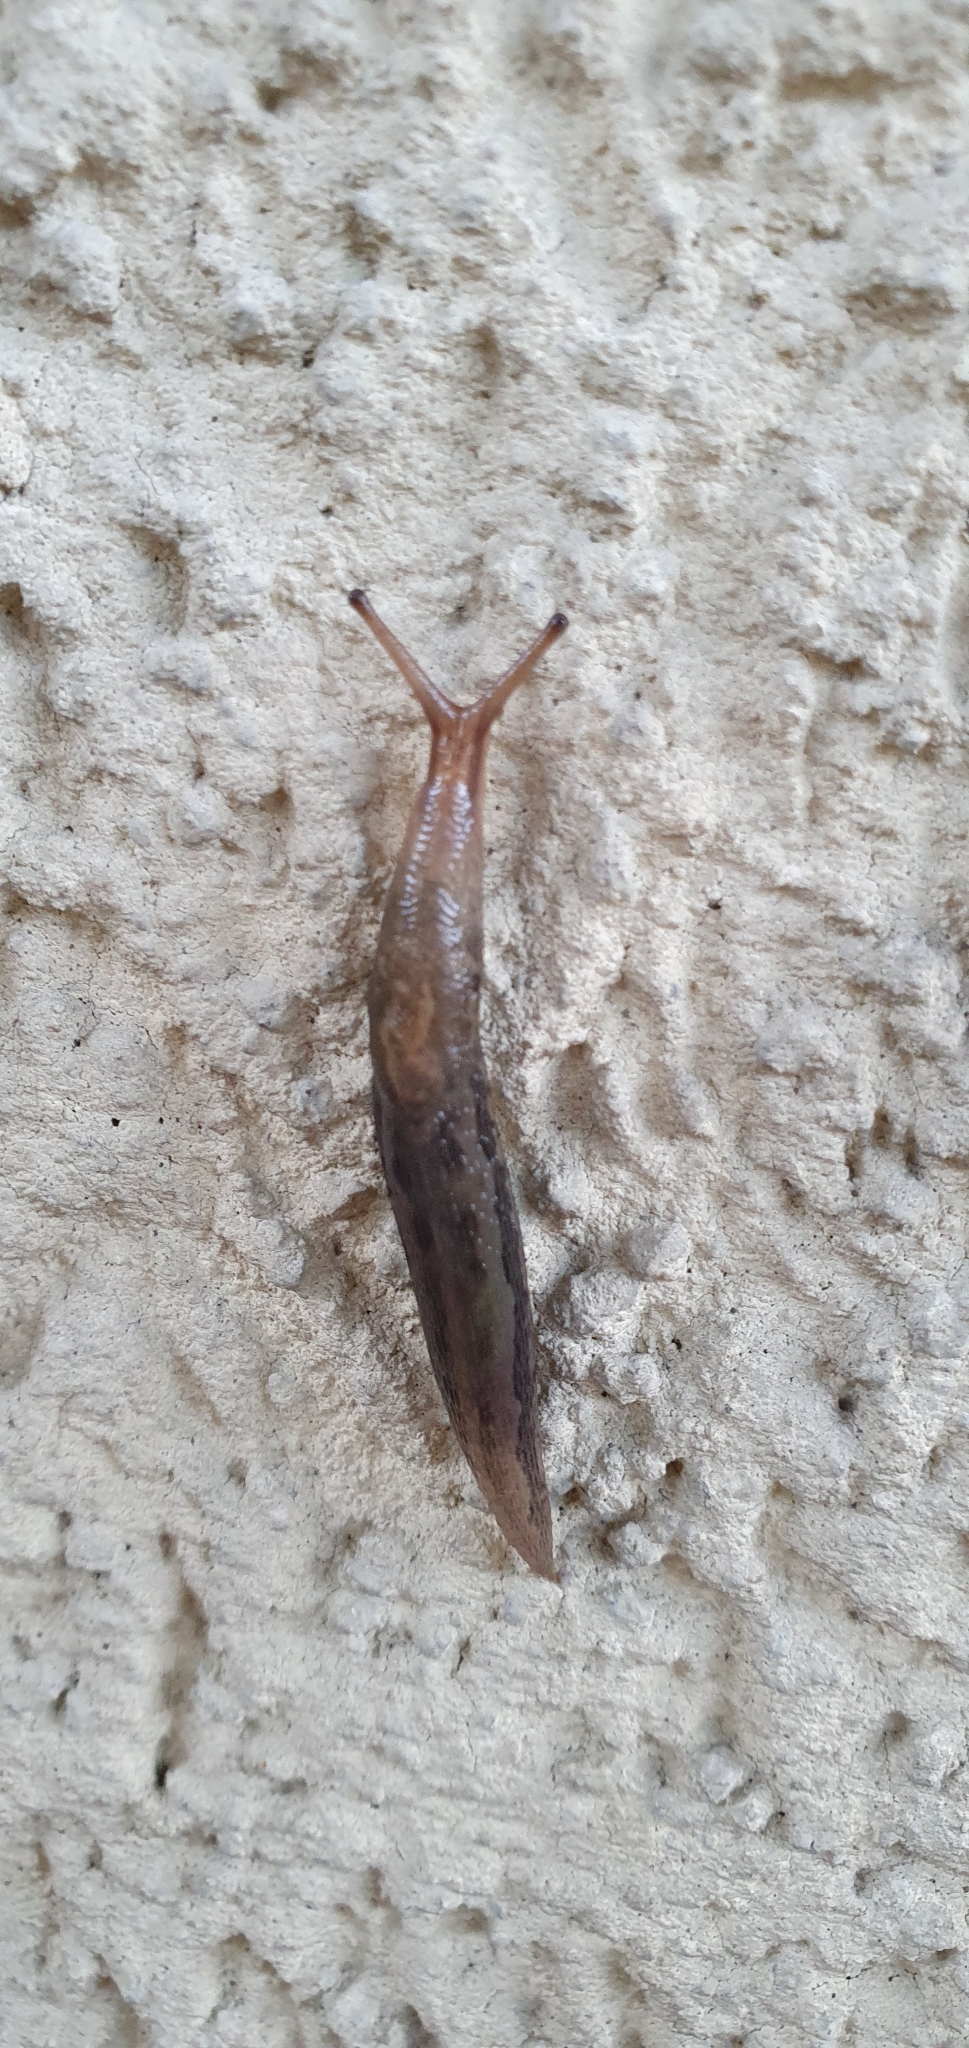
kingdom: Animalia
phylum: Mollusca
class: Gastropoda
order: Stylommatophora
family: Limacidae
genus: Limax
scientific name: Limax maximus
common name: Great grey slug
